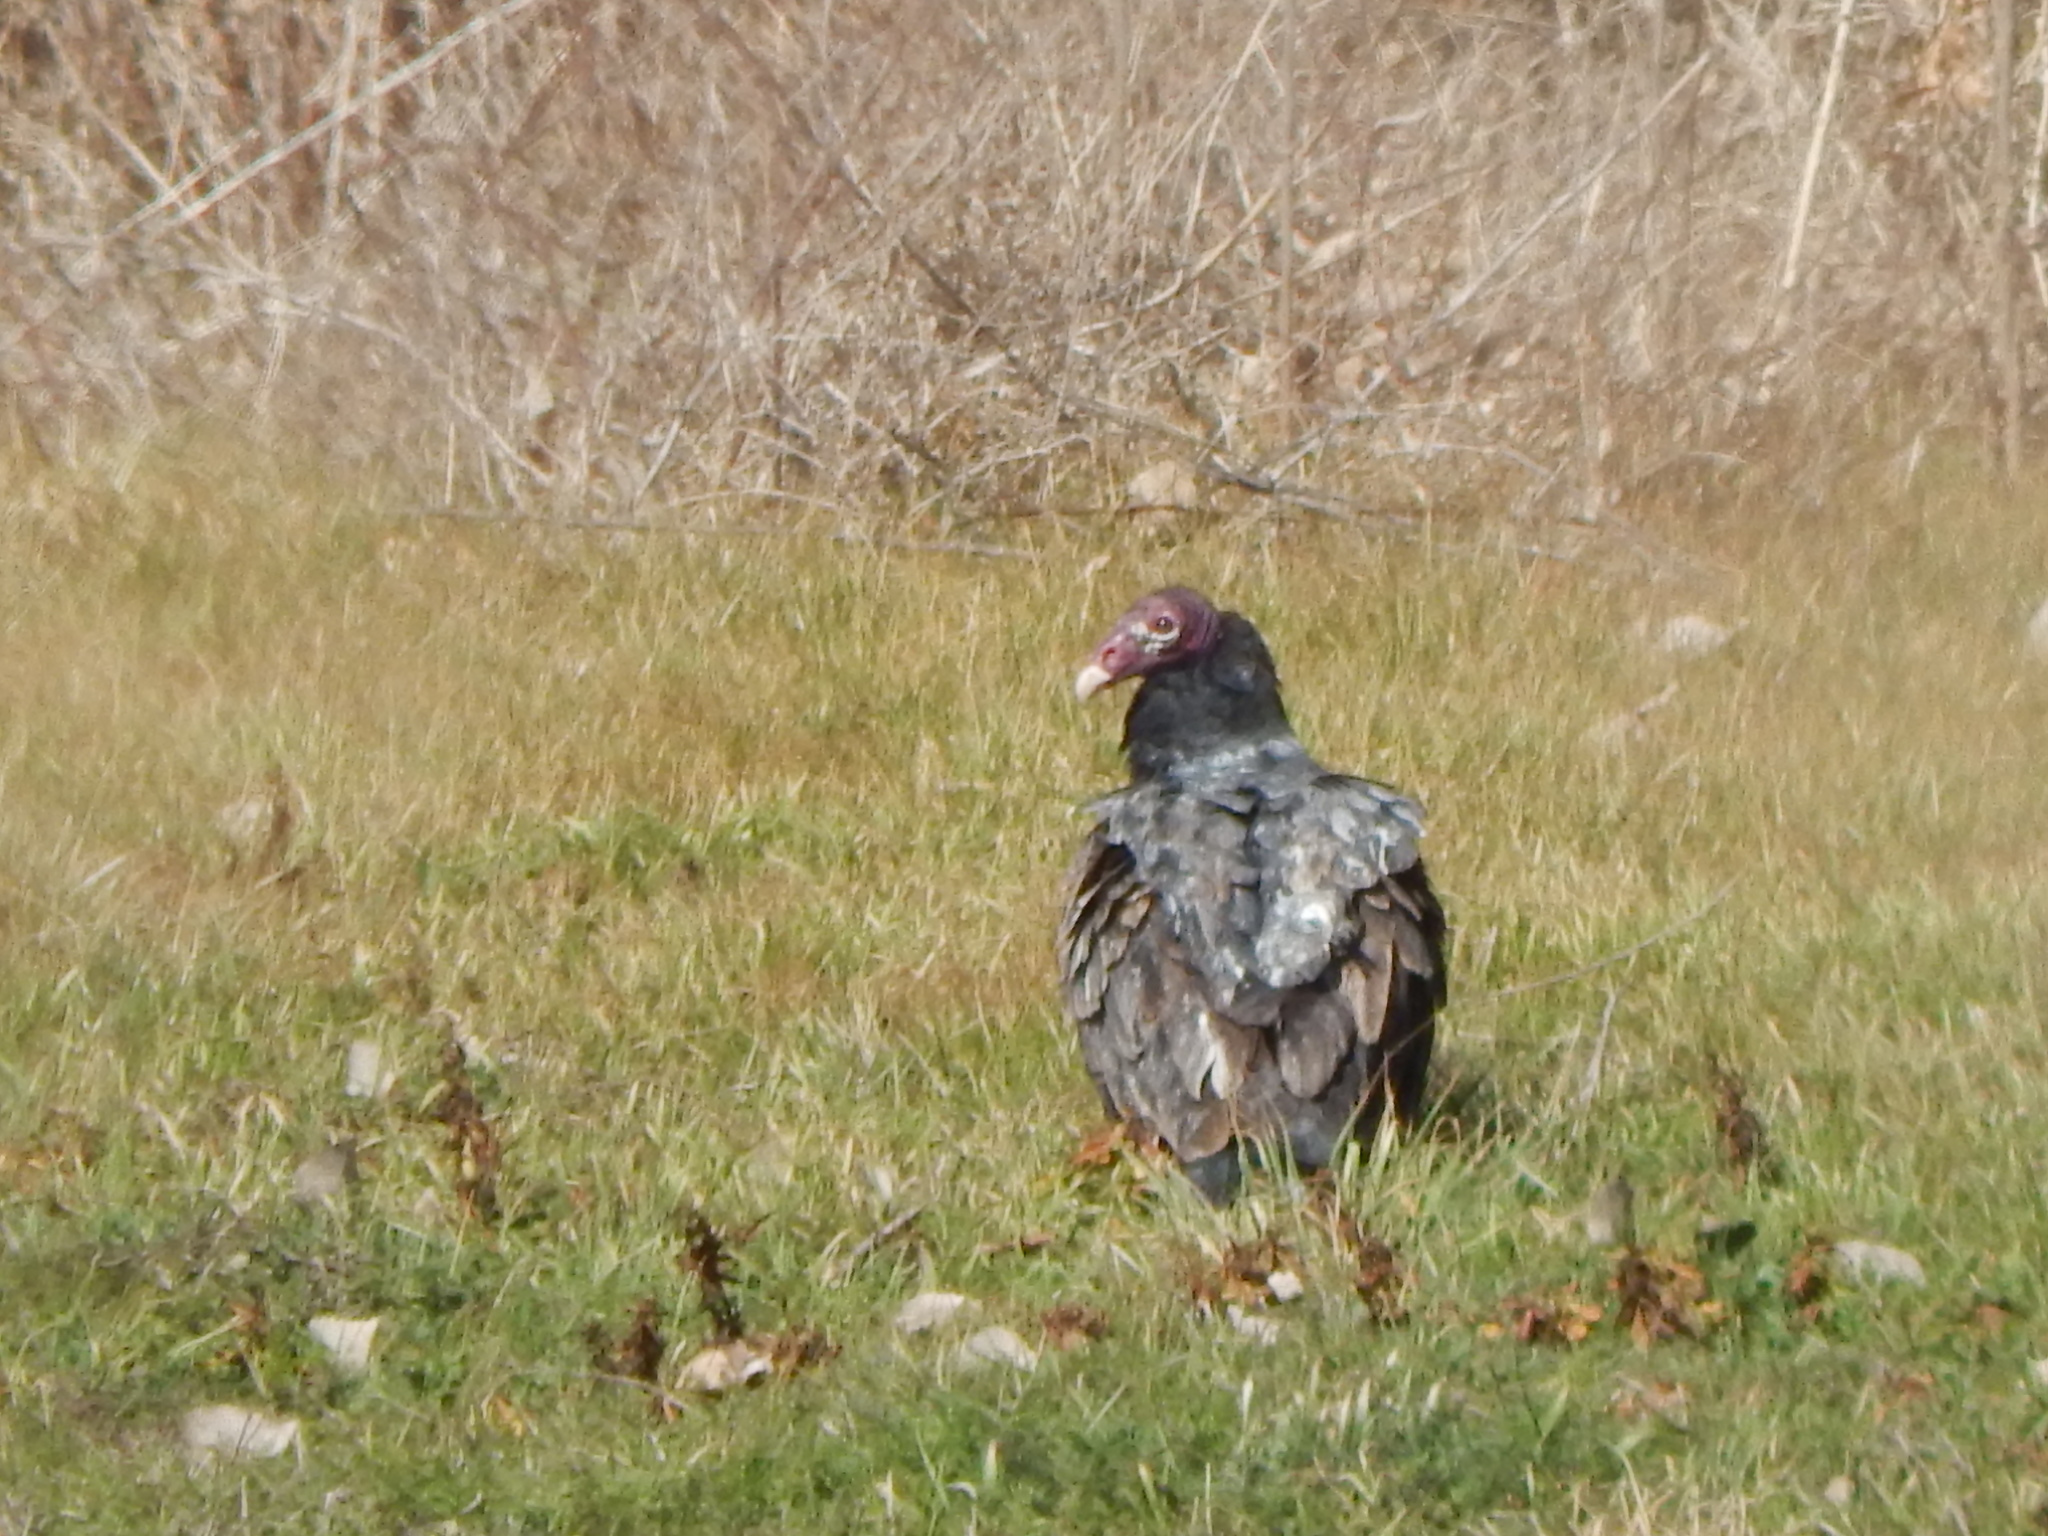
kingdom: Animalia
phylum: Chordata
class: Aves
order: Accipitriformes
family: Cathartidae
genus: Cathartes
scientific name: Cathartes aura
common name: Turkey vulture
